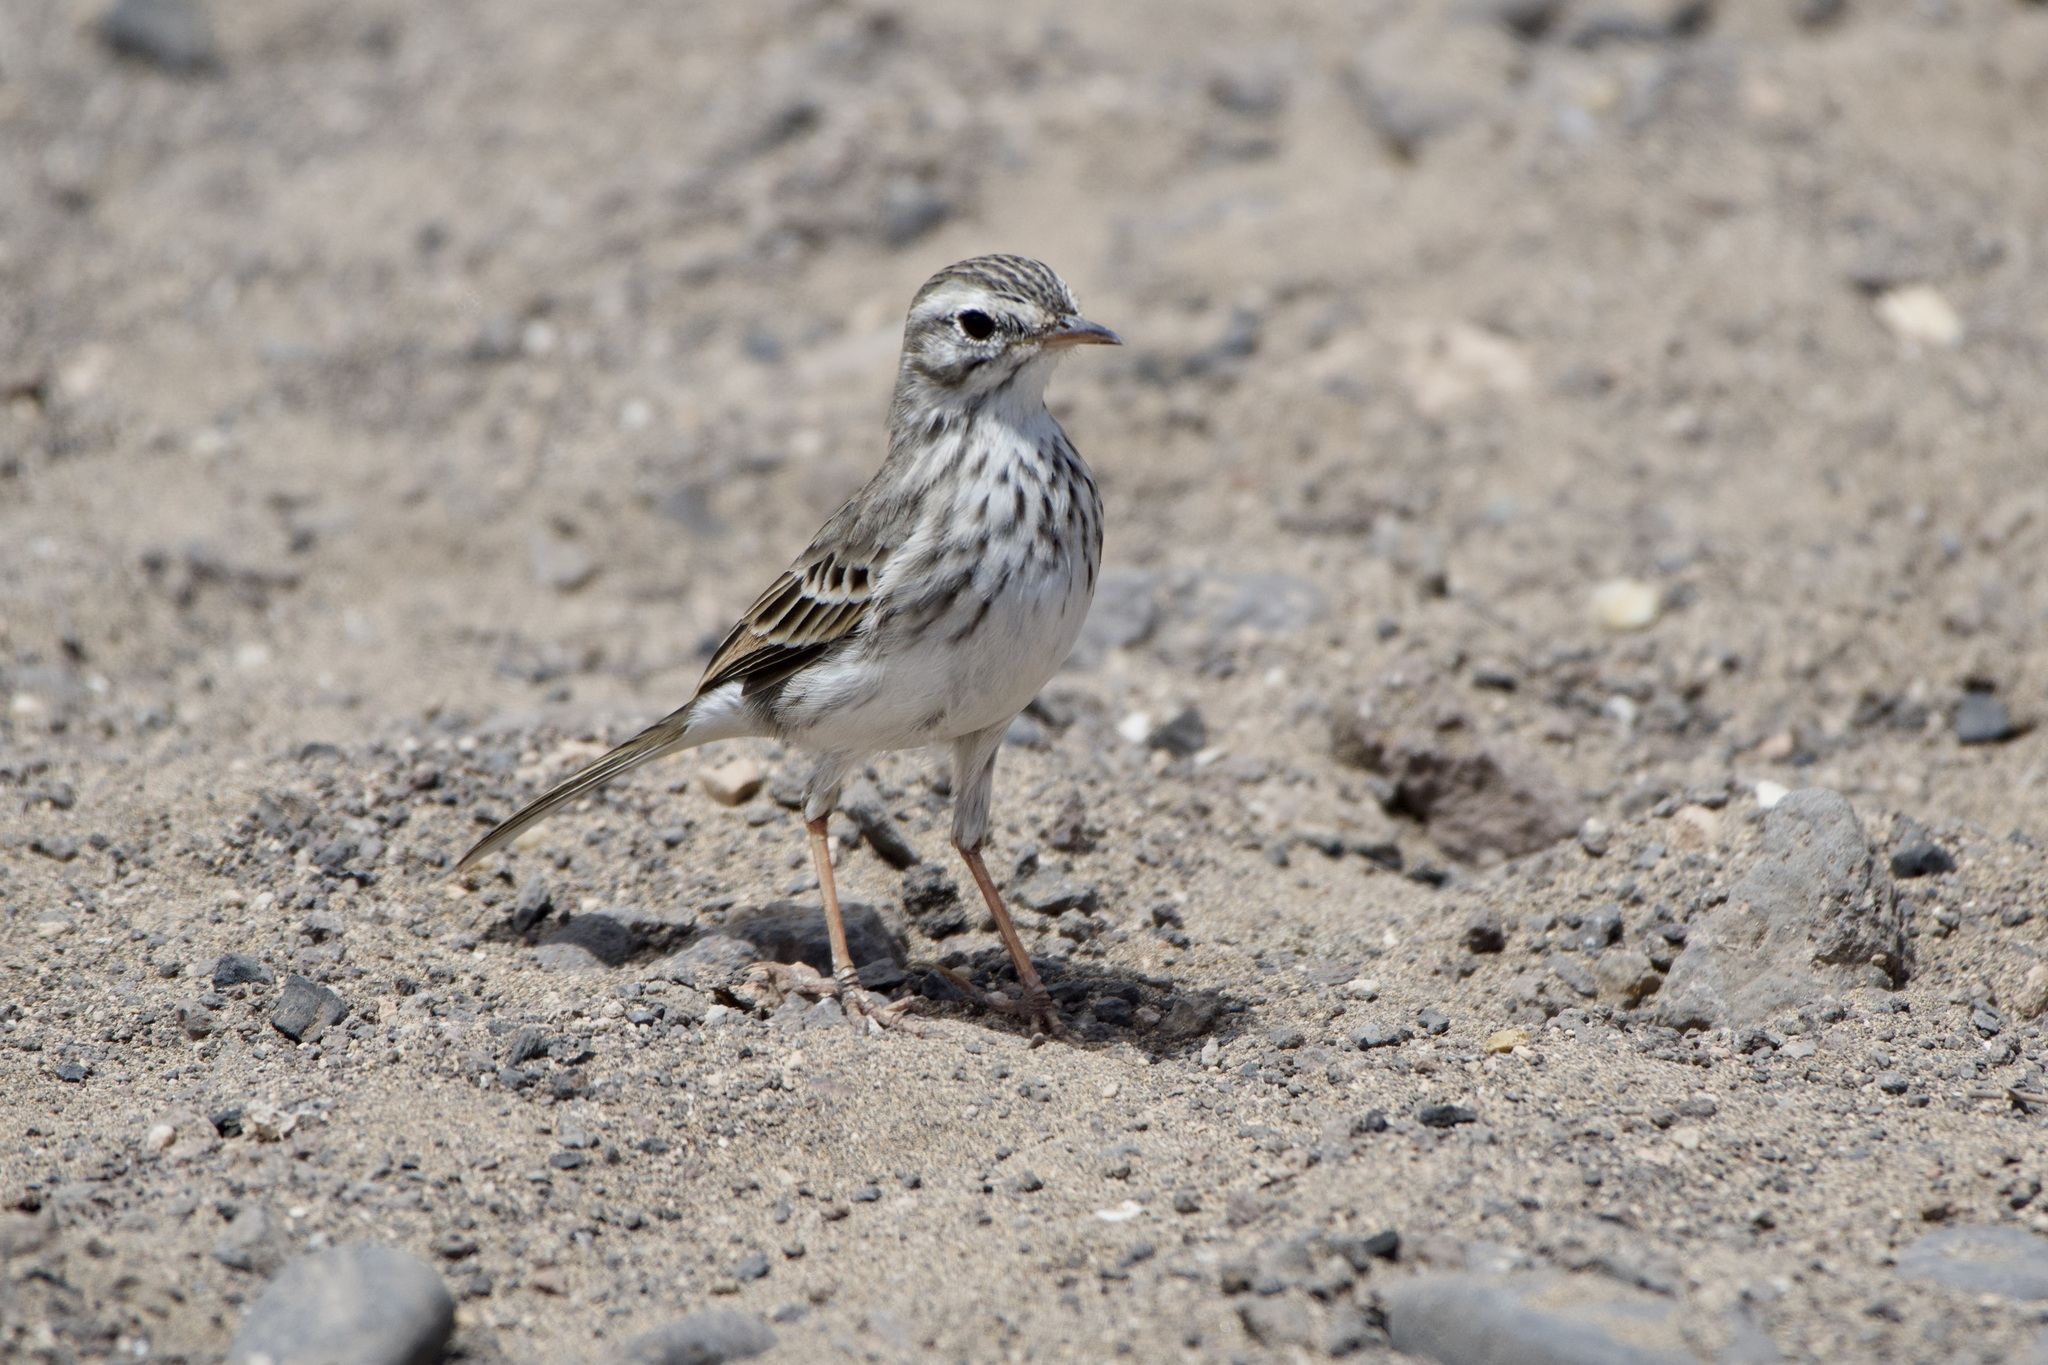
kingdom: Animalia
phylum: Chordata
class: Aves
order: Passeriformes
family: Motacillidae
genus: Anthus
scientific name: Anthus berthelotii
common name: Berthelot's pipit
